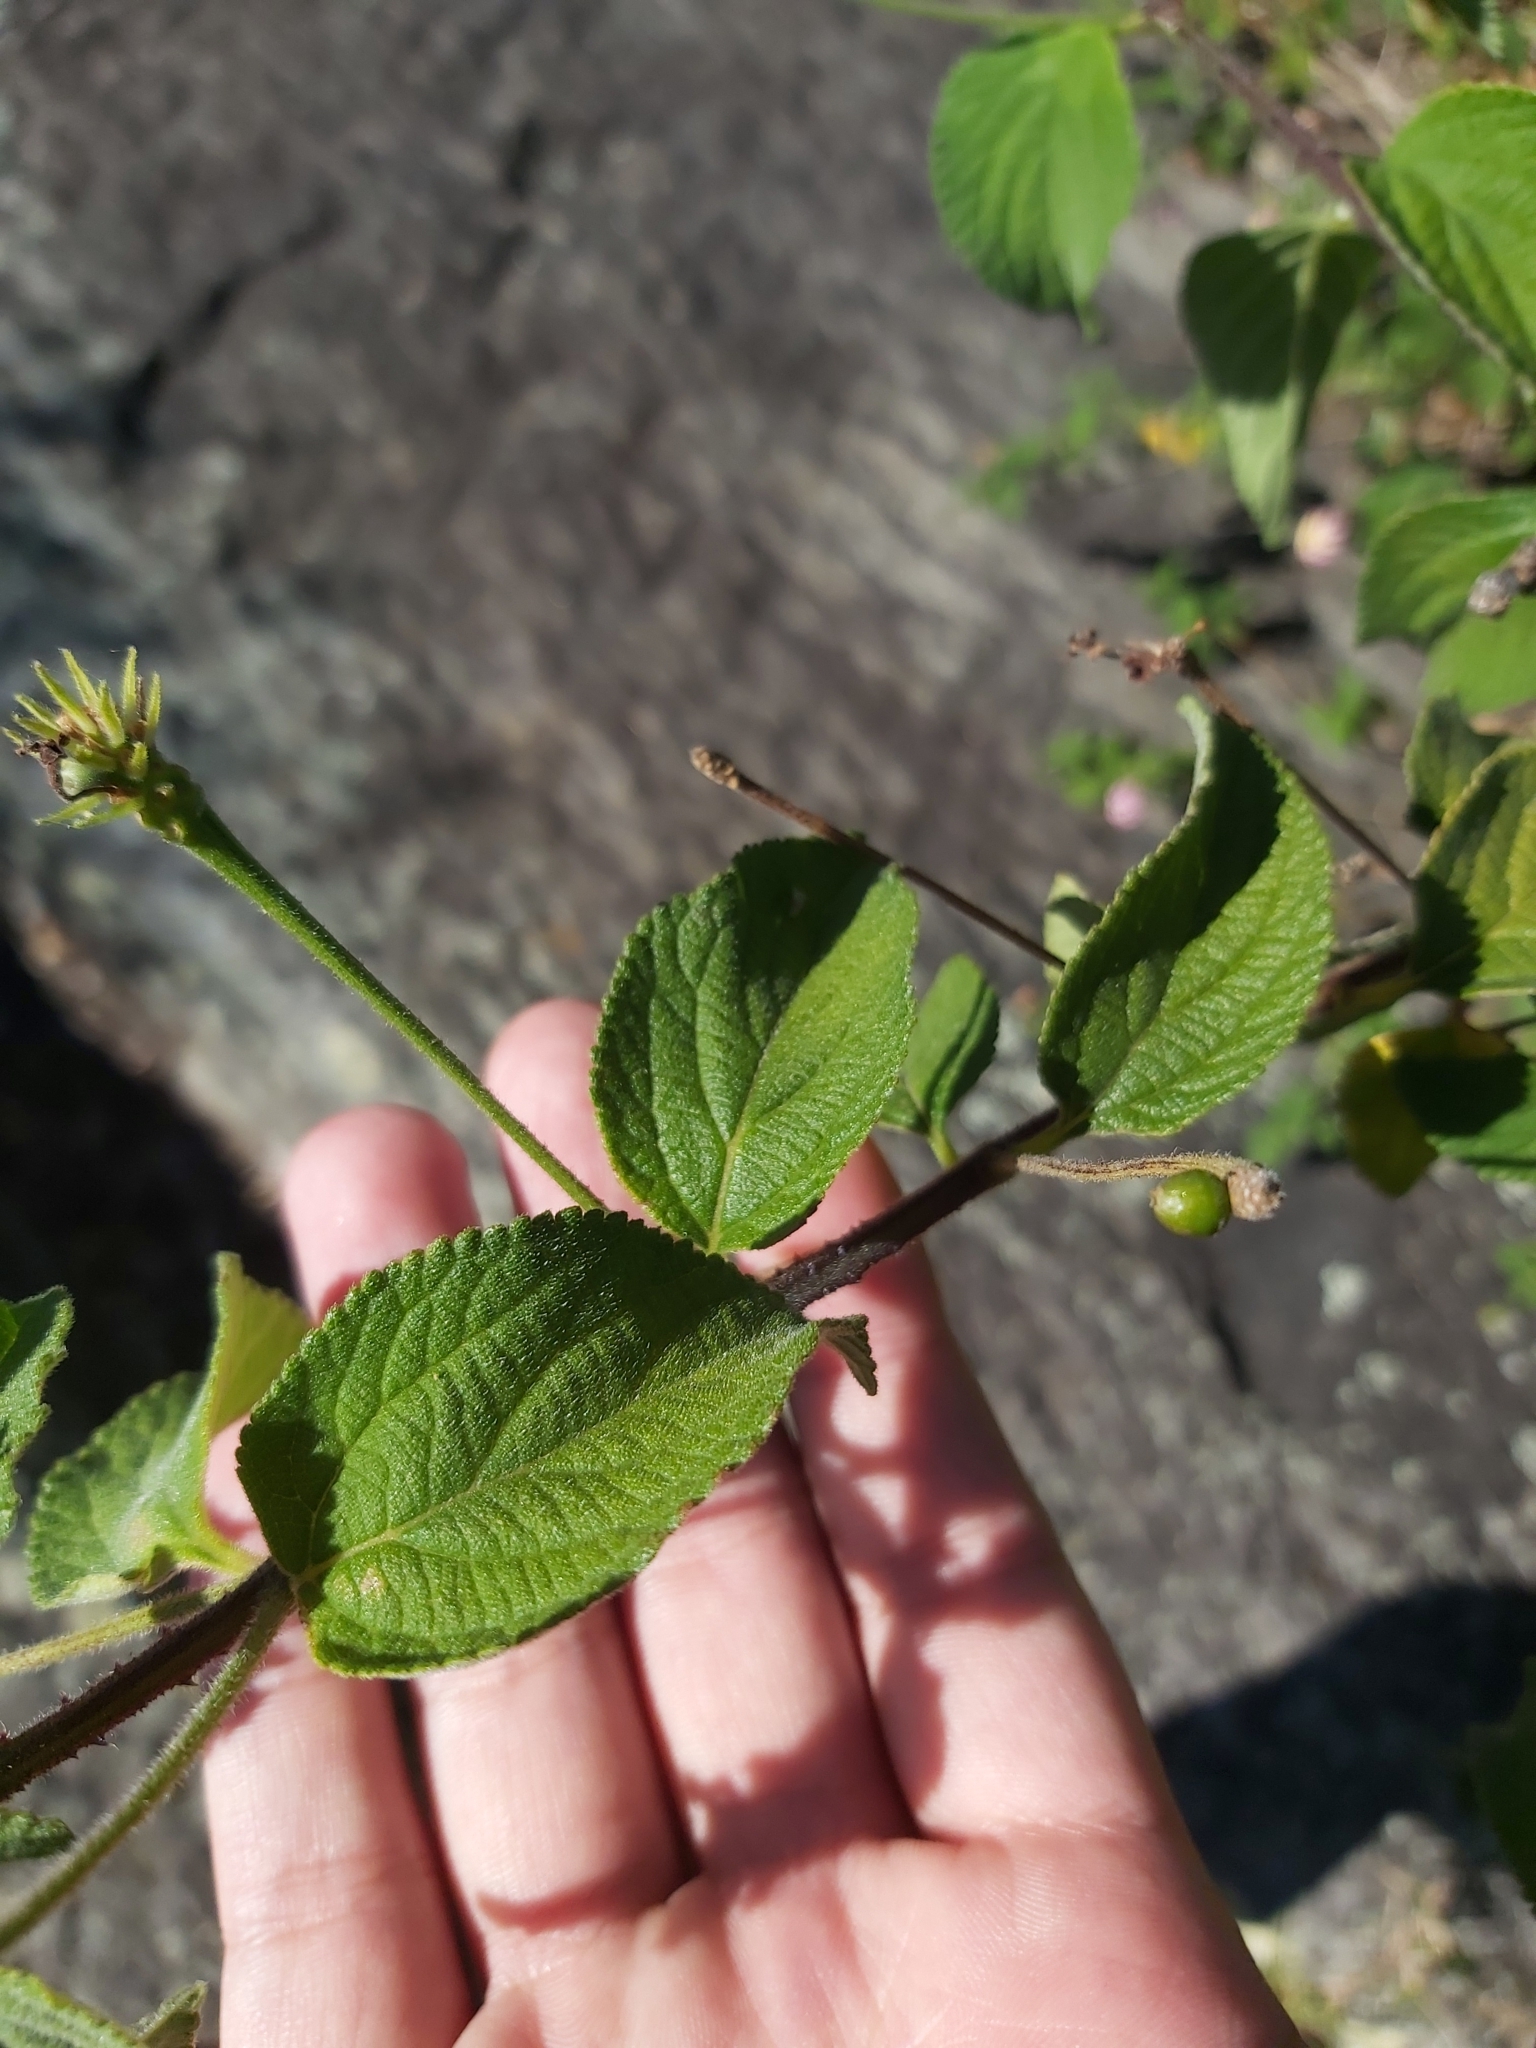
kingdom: Plantae
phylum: Tracheophyta
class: Magnoliopsida
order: Lamiales
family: Verbenaceae
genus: Lantana
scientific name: Lantana camara
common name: Lantana
